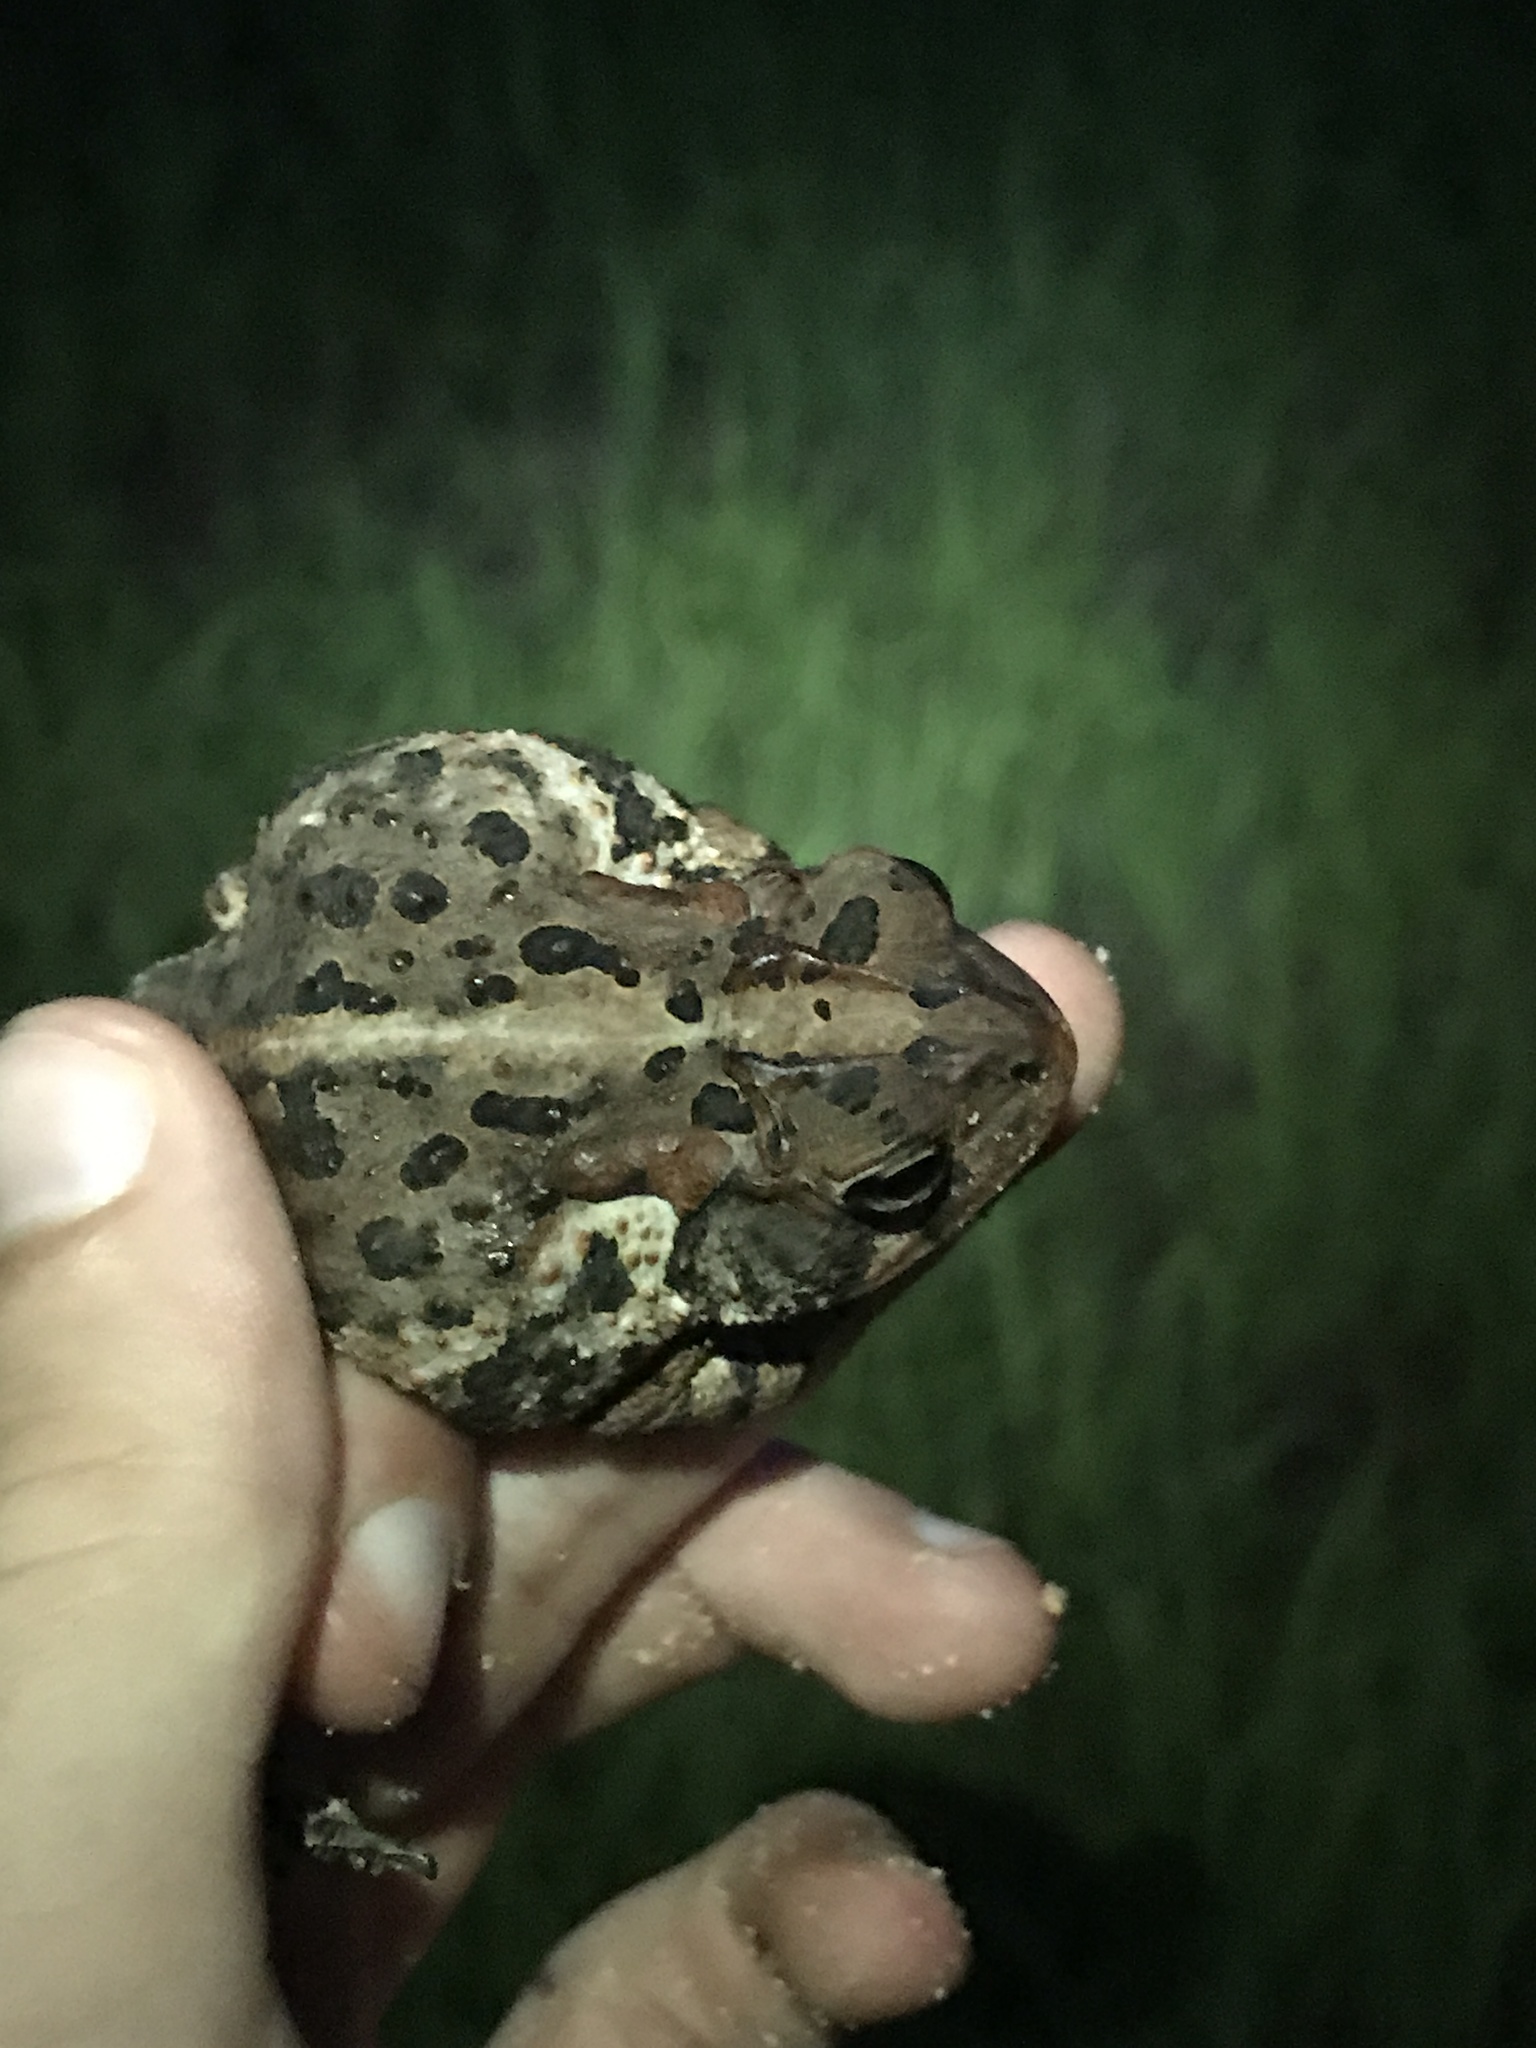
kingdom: Animalia
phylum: Chordata
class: Amphibia
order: Anura
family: Bufonidae
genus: Anaxyrus
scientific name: Anaxyrus terrestris
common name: Southern toad
